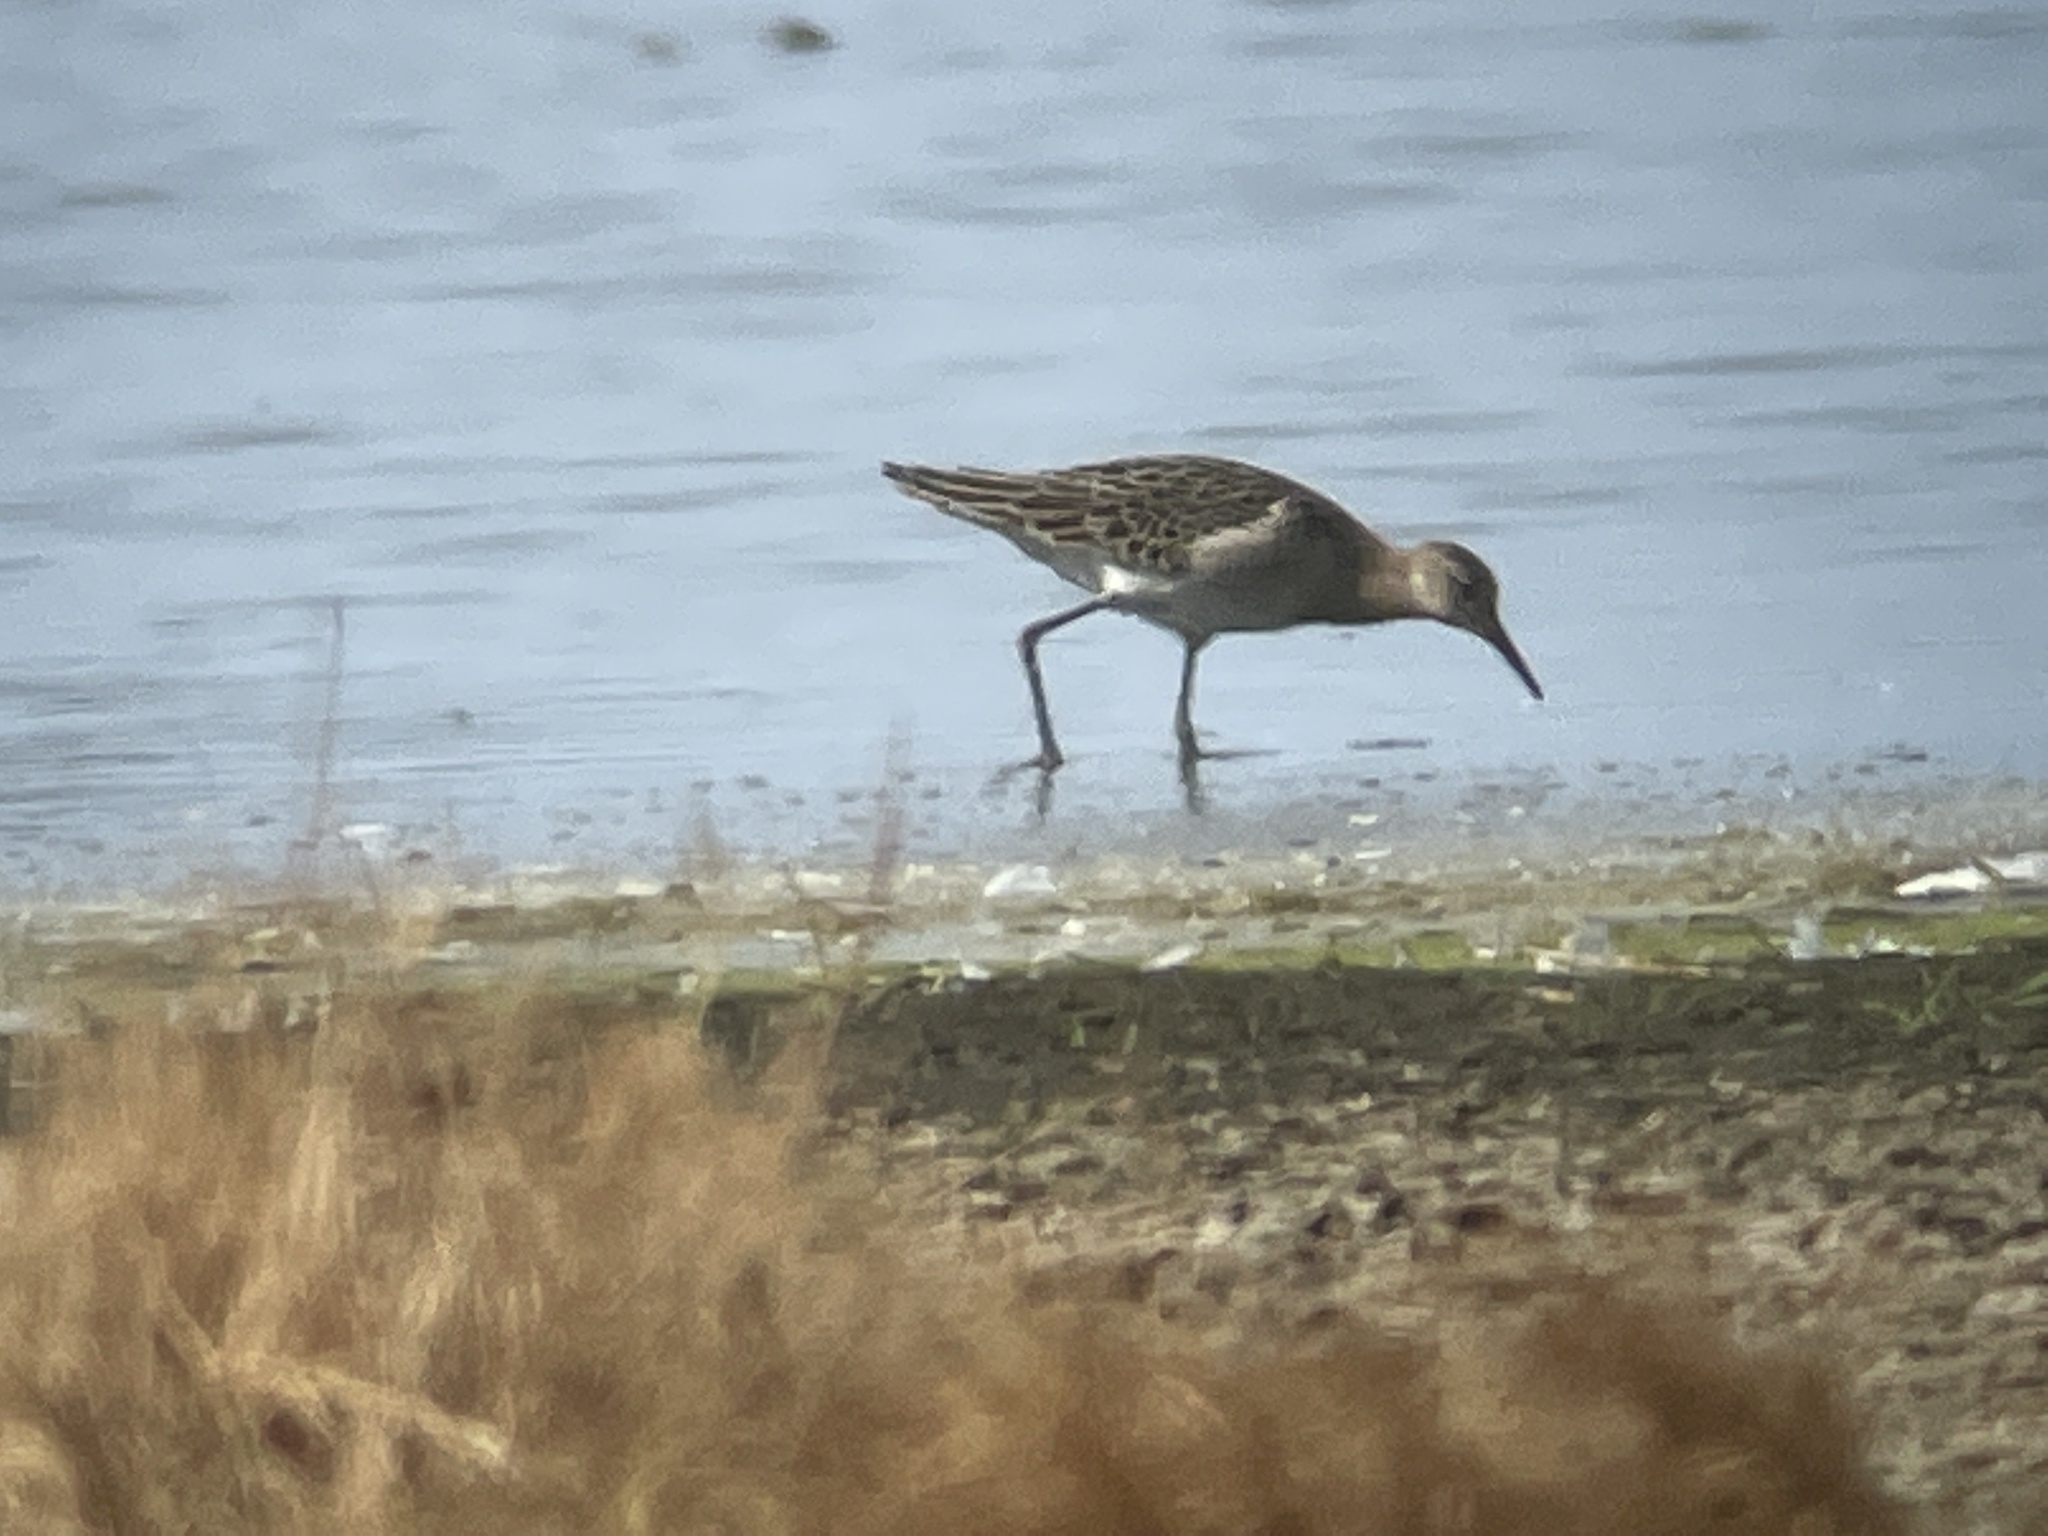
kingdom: Animalia
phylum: Chordata
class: Aves
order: Charadriiformes
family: Scolopacidae
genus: Calidris
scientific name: Calidris pugnax
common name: Ruff
